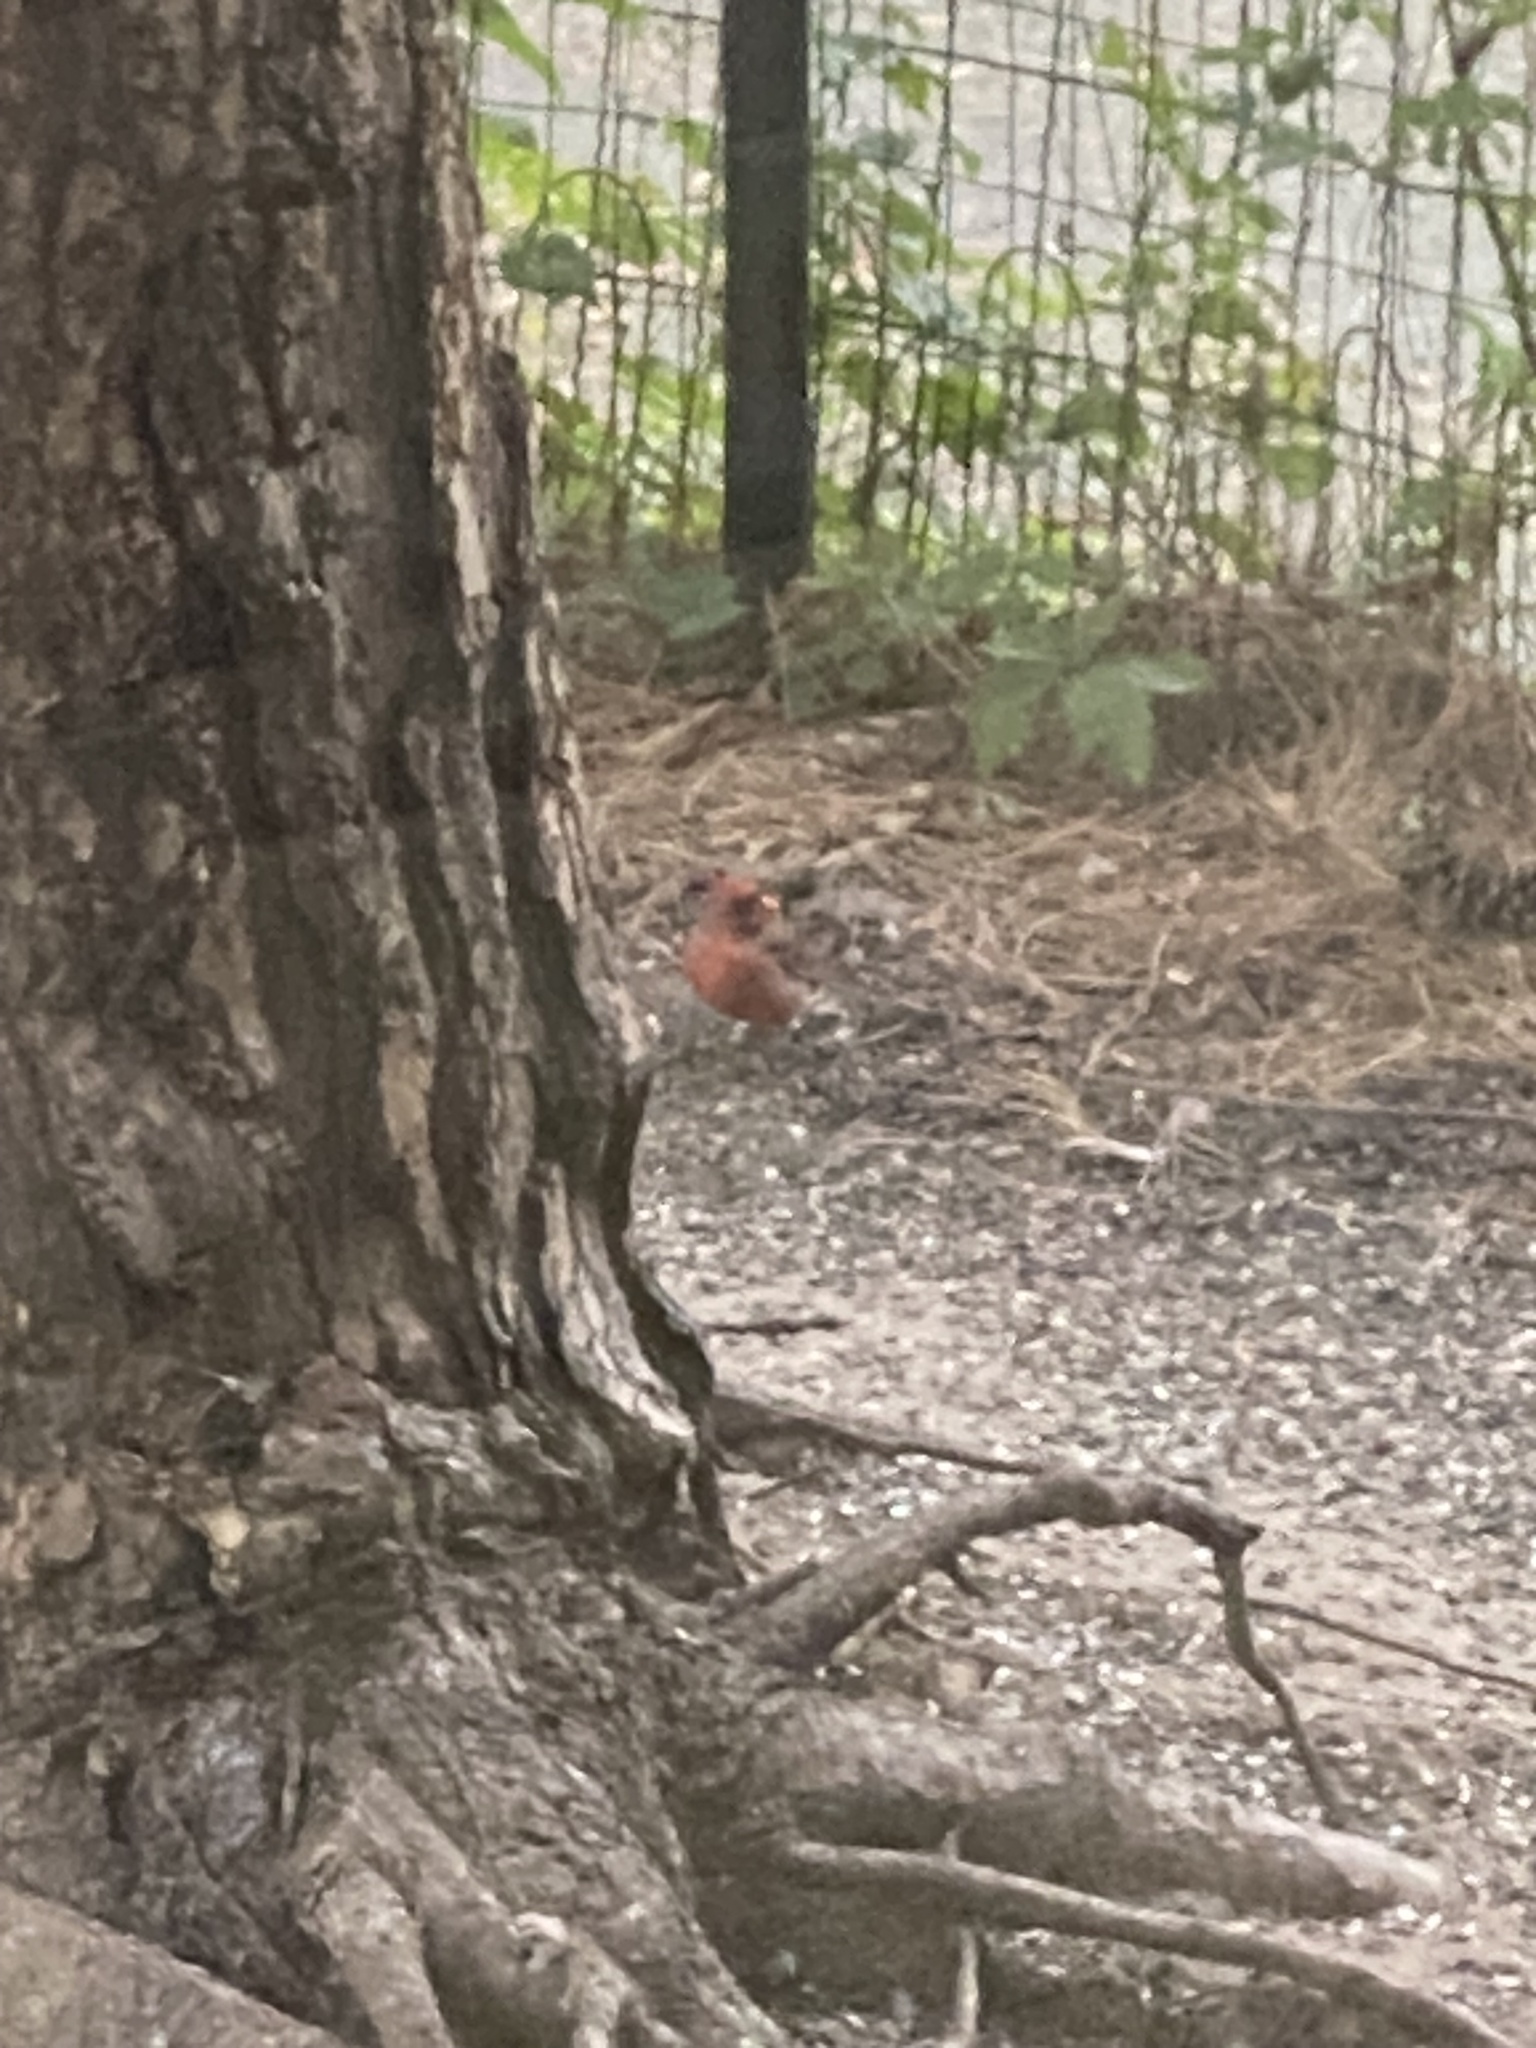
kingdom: Animalia
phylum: Chordata
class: Aves
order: Passeriformes
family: Cardinalidae
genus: Cardinalis
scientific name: Cardinalis cardinalis
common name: Northern cardinal
